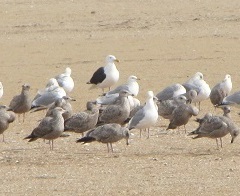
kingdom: Animalia
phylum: Chordata
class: Aves
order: Charadriiformes
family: Laridae
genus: Larus
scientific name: Larus marinus
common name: Great black-backed gull
